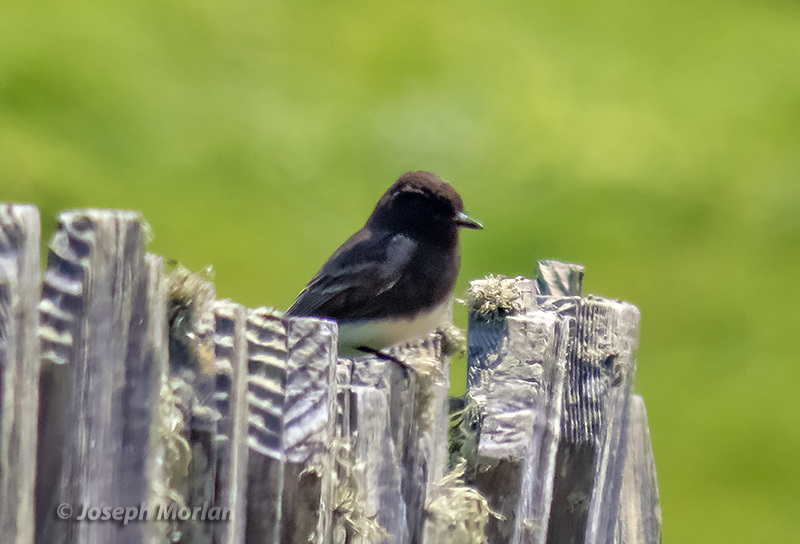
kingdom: Animalia
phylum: Chordata
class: Aves
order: Passeriformes
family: Tyrannidae
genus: Sayornis
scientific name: Sayornis nigricans
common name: Black phoebe
